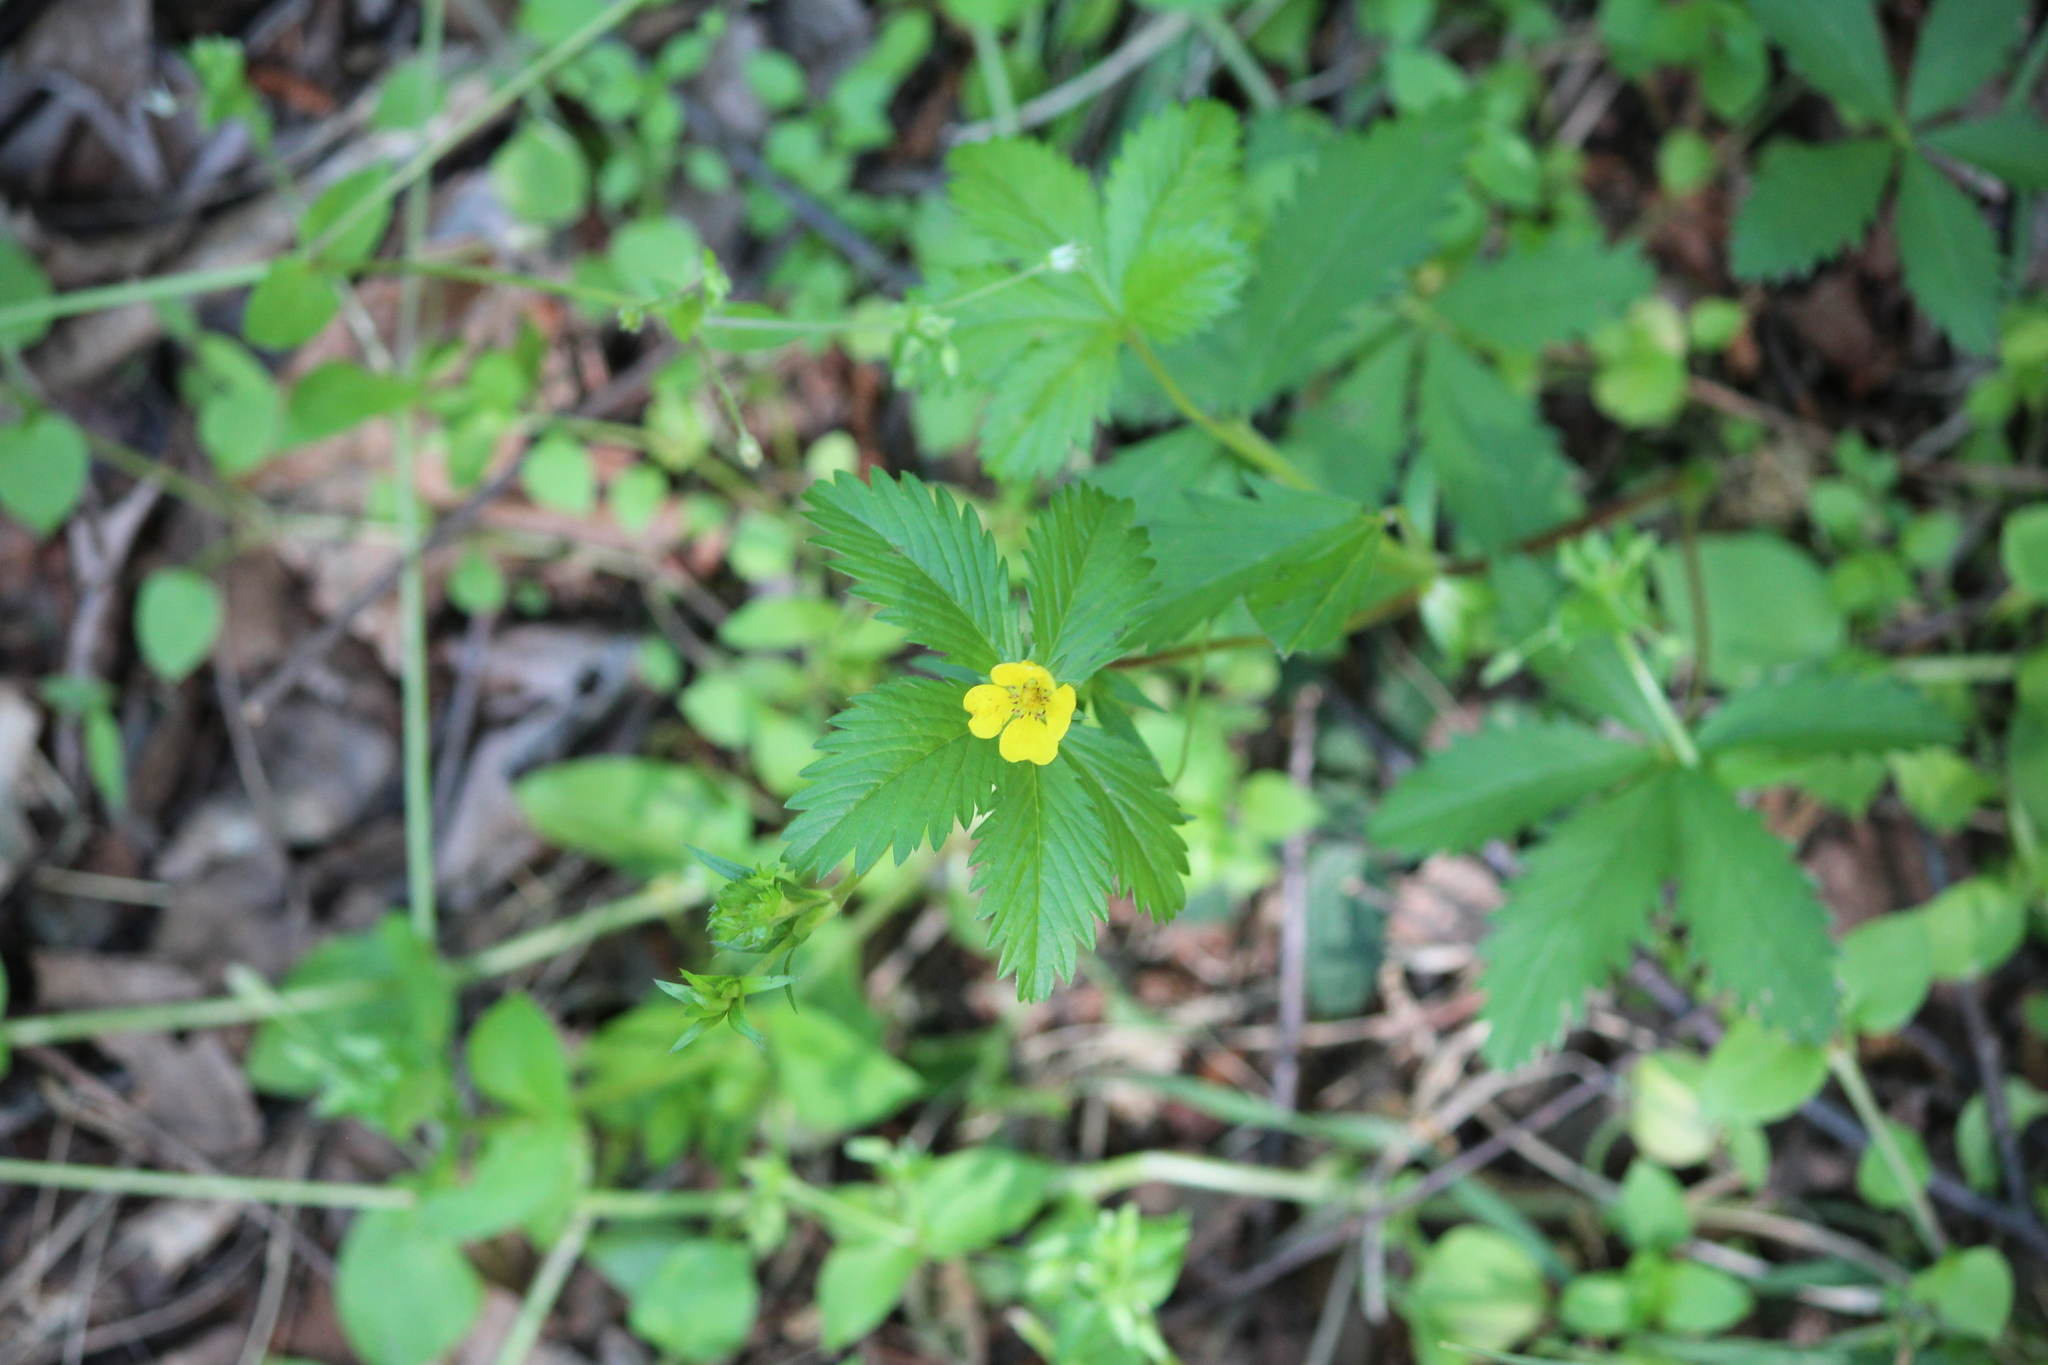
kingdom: Plantae
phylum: Tracheophyta
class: Magnoliopsida
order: Rosales
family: Rosaceae
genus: Potentilla
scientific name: Potentilla simplex
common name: Old field cinquefoil
